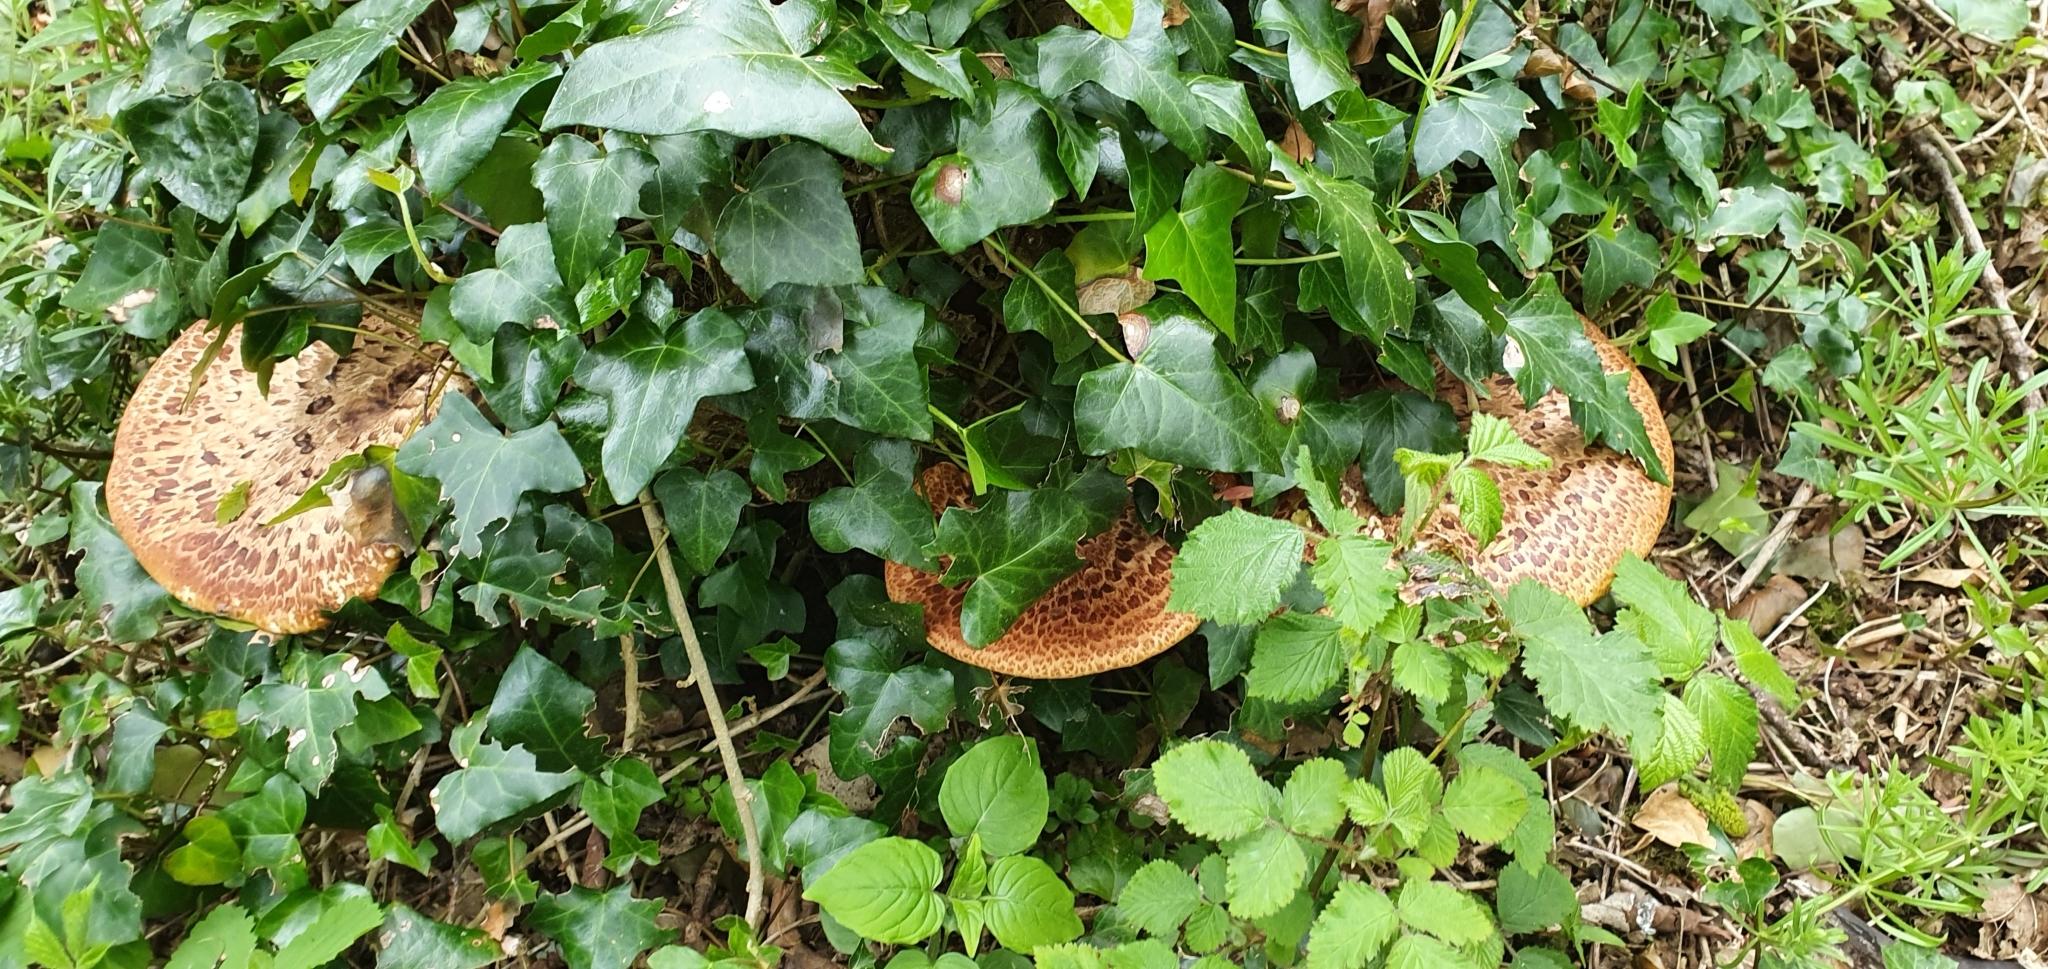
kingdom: Fungi
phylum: Basidiomycota
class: Agaricomycetes
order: Polyporales
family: Polyporaceae
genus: Cerioporus
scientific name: Cerioporus squamosus
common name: Dryad's saddle
